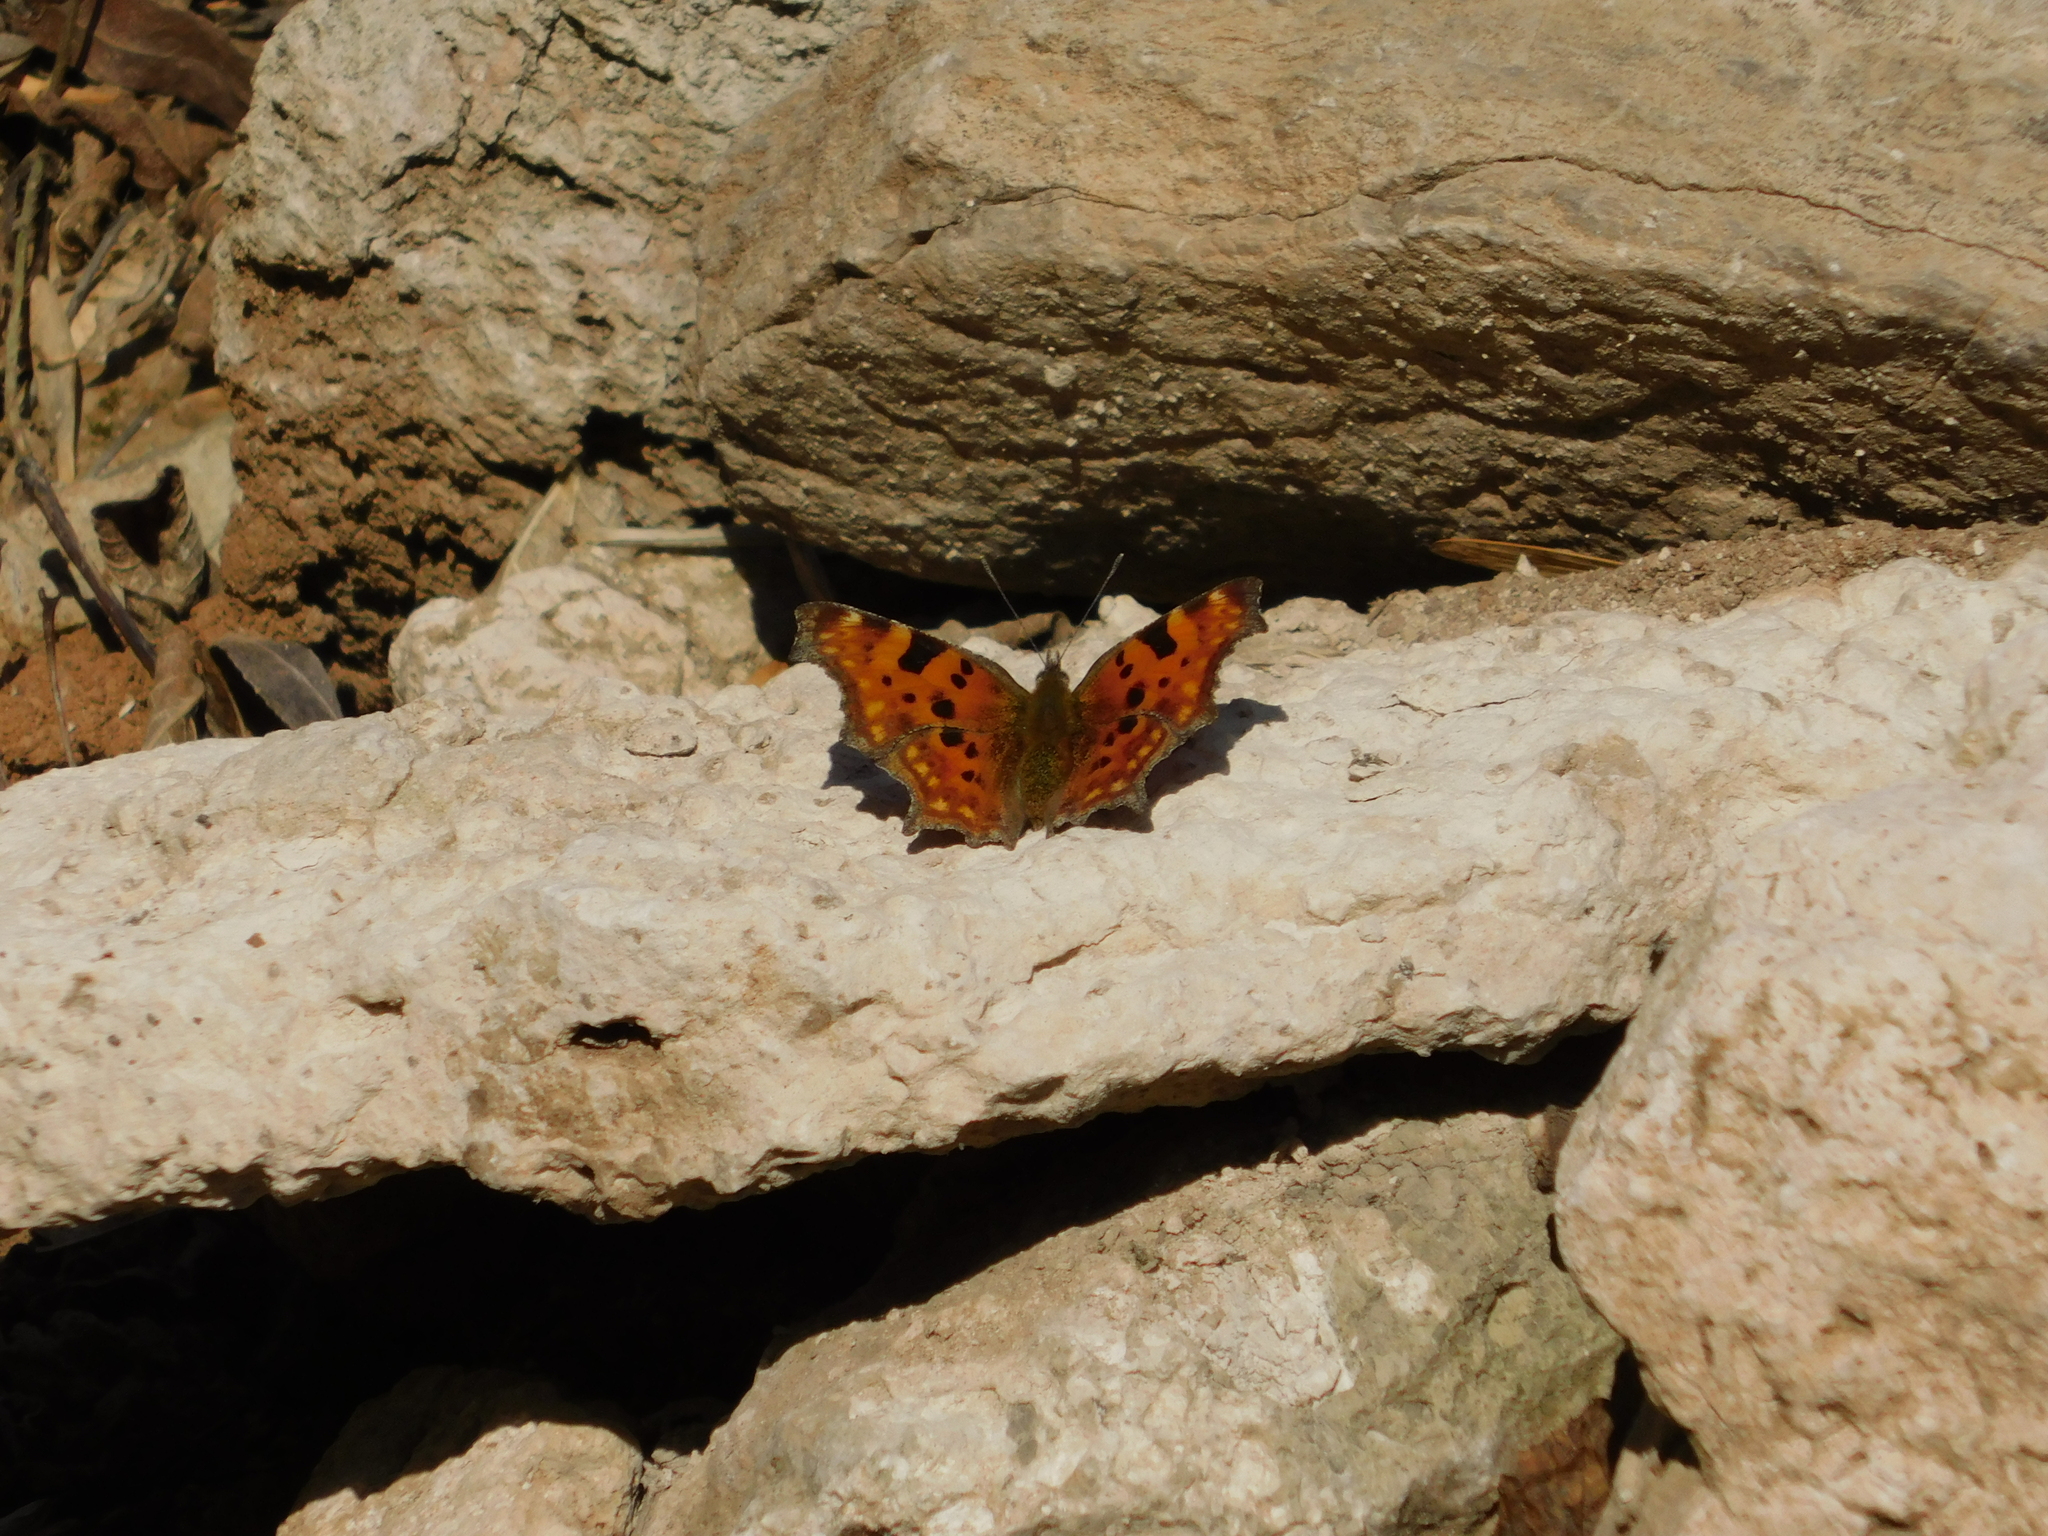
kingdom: Animalia
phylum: Arthropoda
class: Insecta
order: Lepidoptera
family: Nymphalidae
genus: Polygonia
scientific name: Polygonia c-album
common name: Comma
